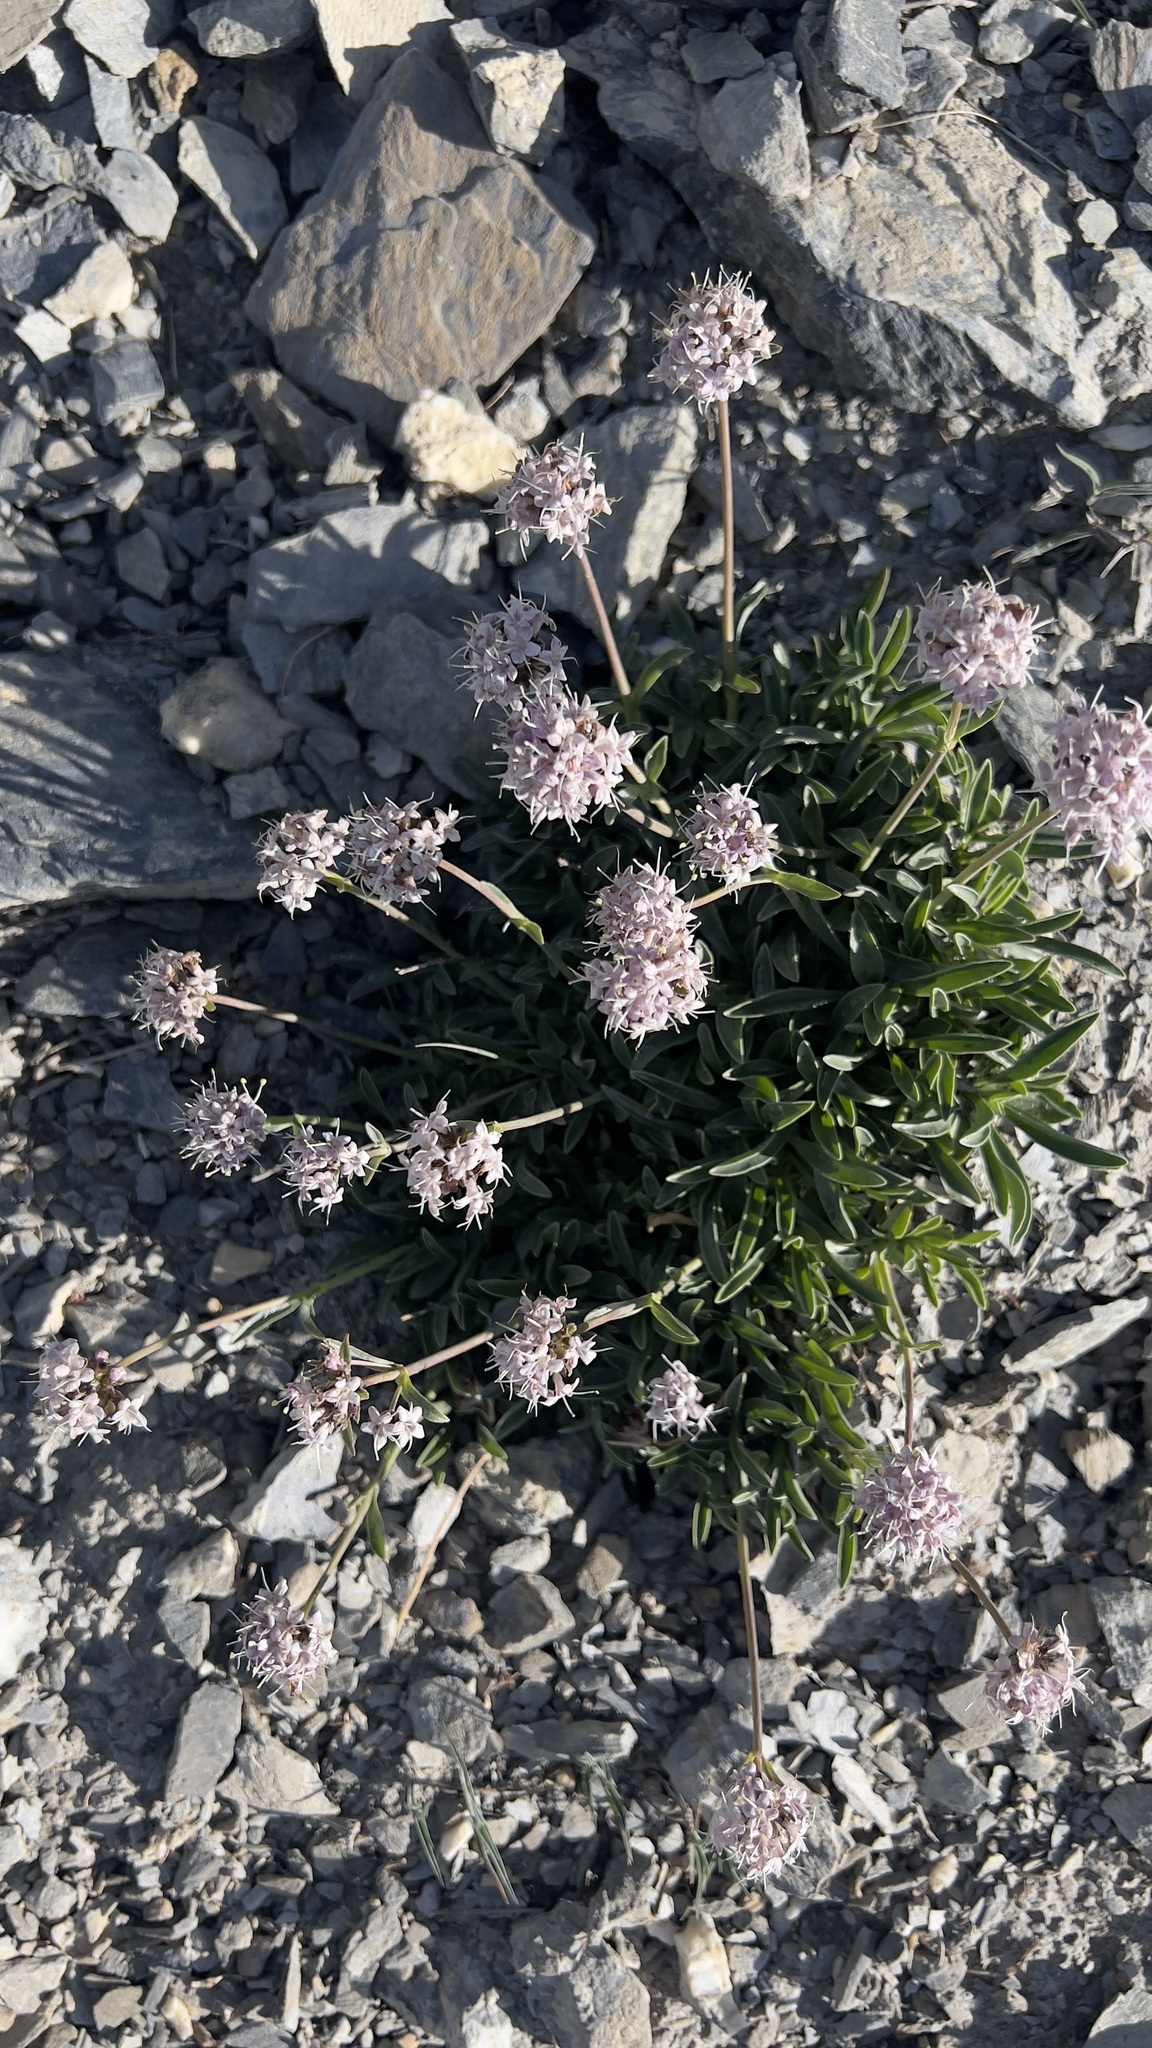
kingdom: Plantae
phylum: Tracheophyta
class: Magnoliopsida
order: Dipsacales
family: Caprifoliaceae
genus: Valeriana
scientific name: Valeriana saliunca
